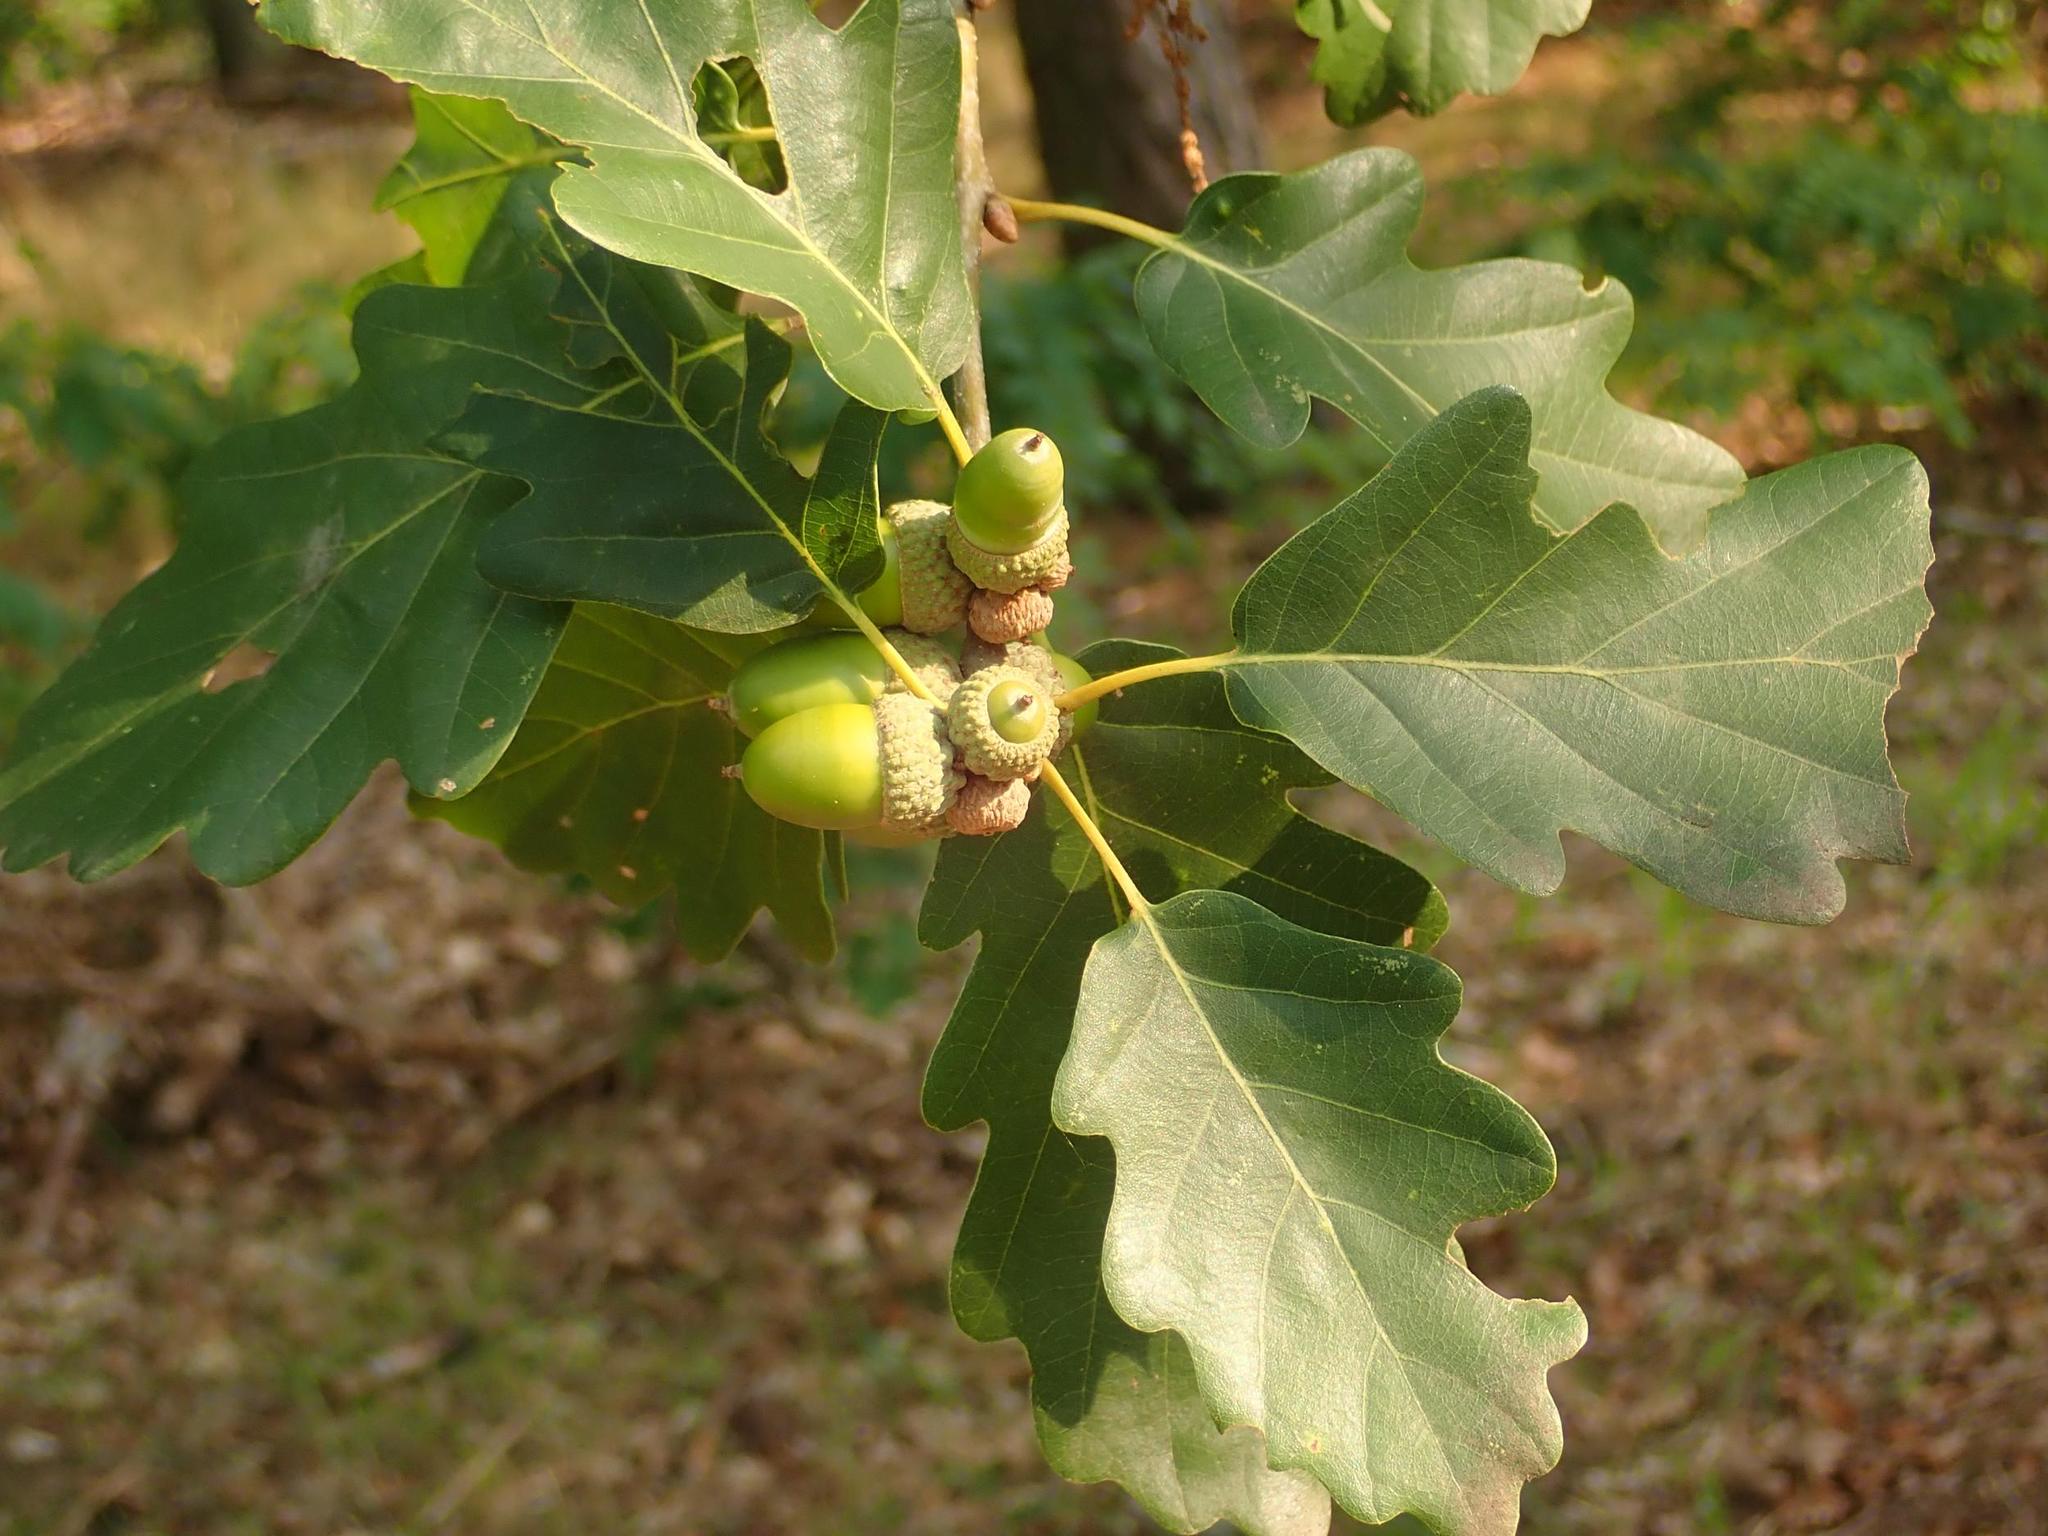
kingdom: Plantae
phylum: Tracheophyta
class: Magnoliopsida
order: Fagales
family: Fagaceae
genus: Quercus
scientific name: Quercus petraea
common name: Sessile oak
